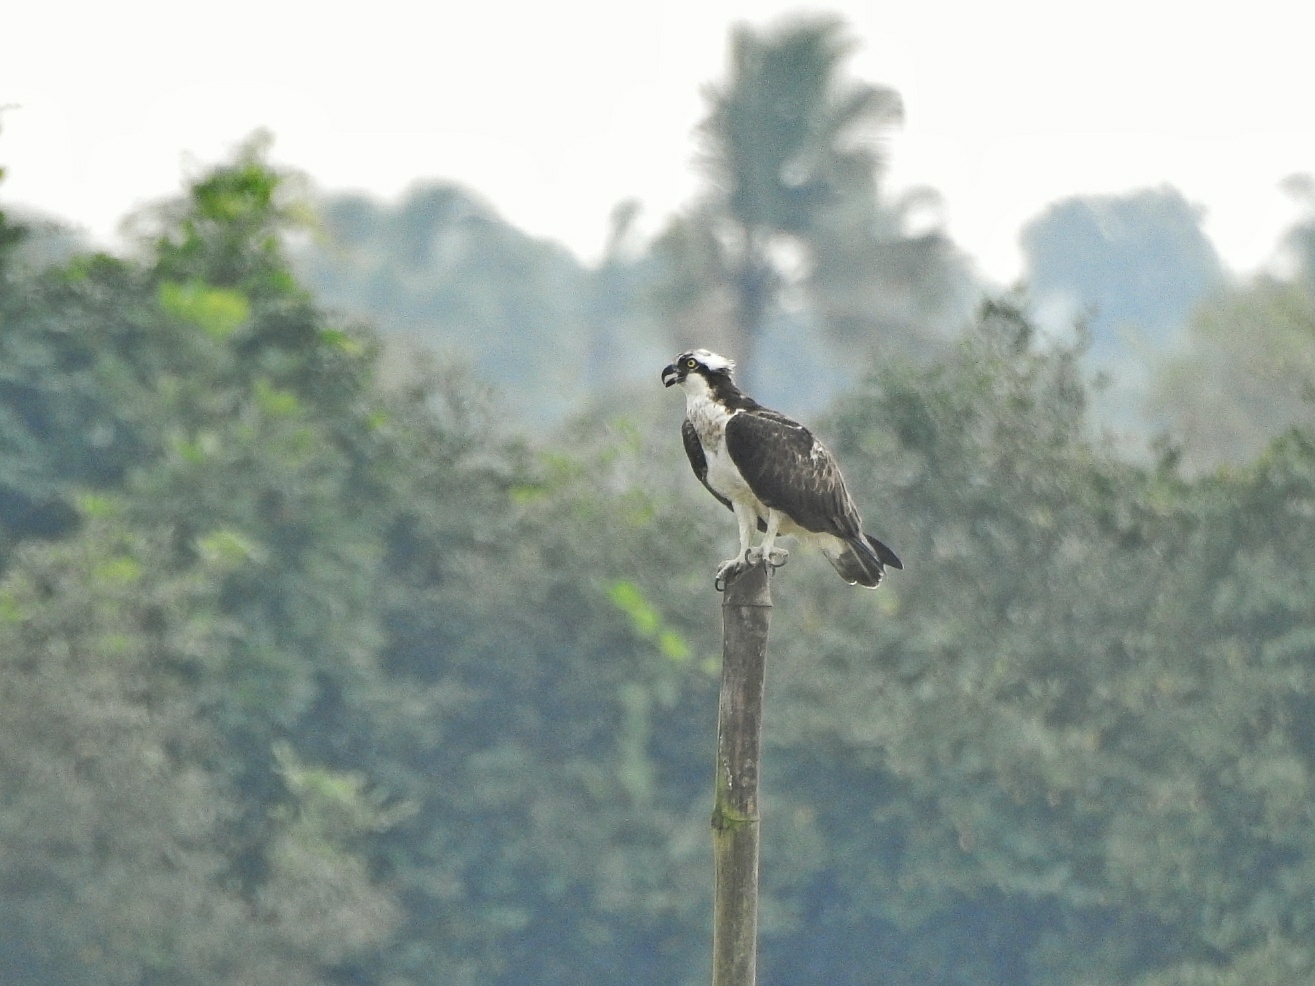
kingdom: Animalia
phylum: Chordata
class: Aves
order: Accipitriformes
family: Pandionidae
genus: Pandion
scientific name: Pandion haliaetus
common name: Osprey
